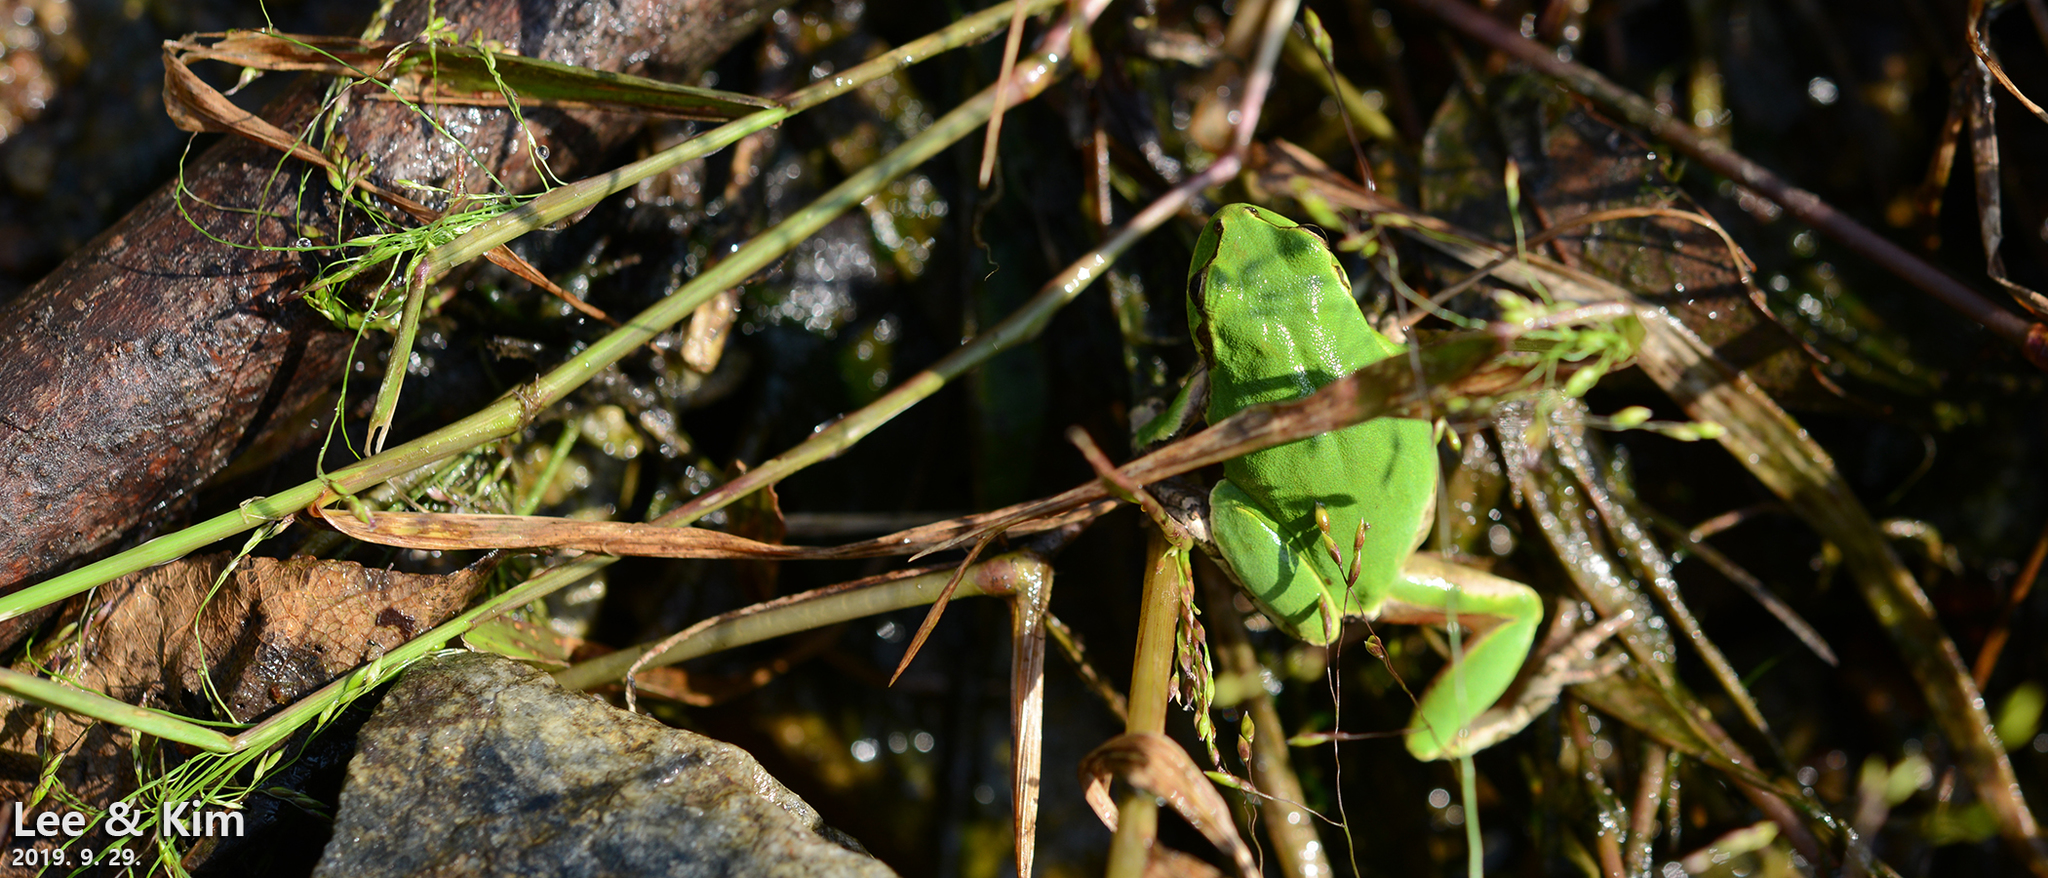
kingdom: Animalia
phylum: Chordata
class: Amphibia
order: Anura
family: Hylidae
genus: Dryophytes
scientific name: Dryophytes japonicus
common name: Japanese treefrog
